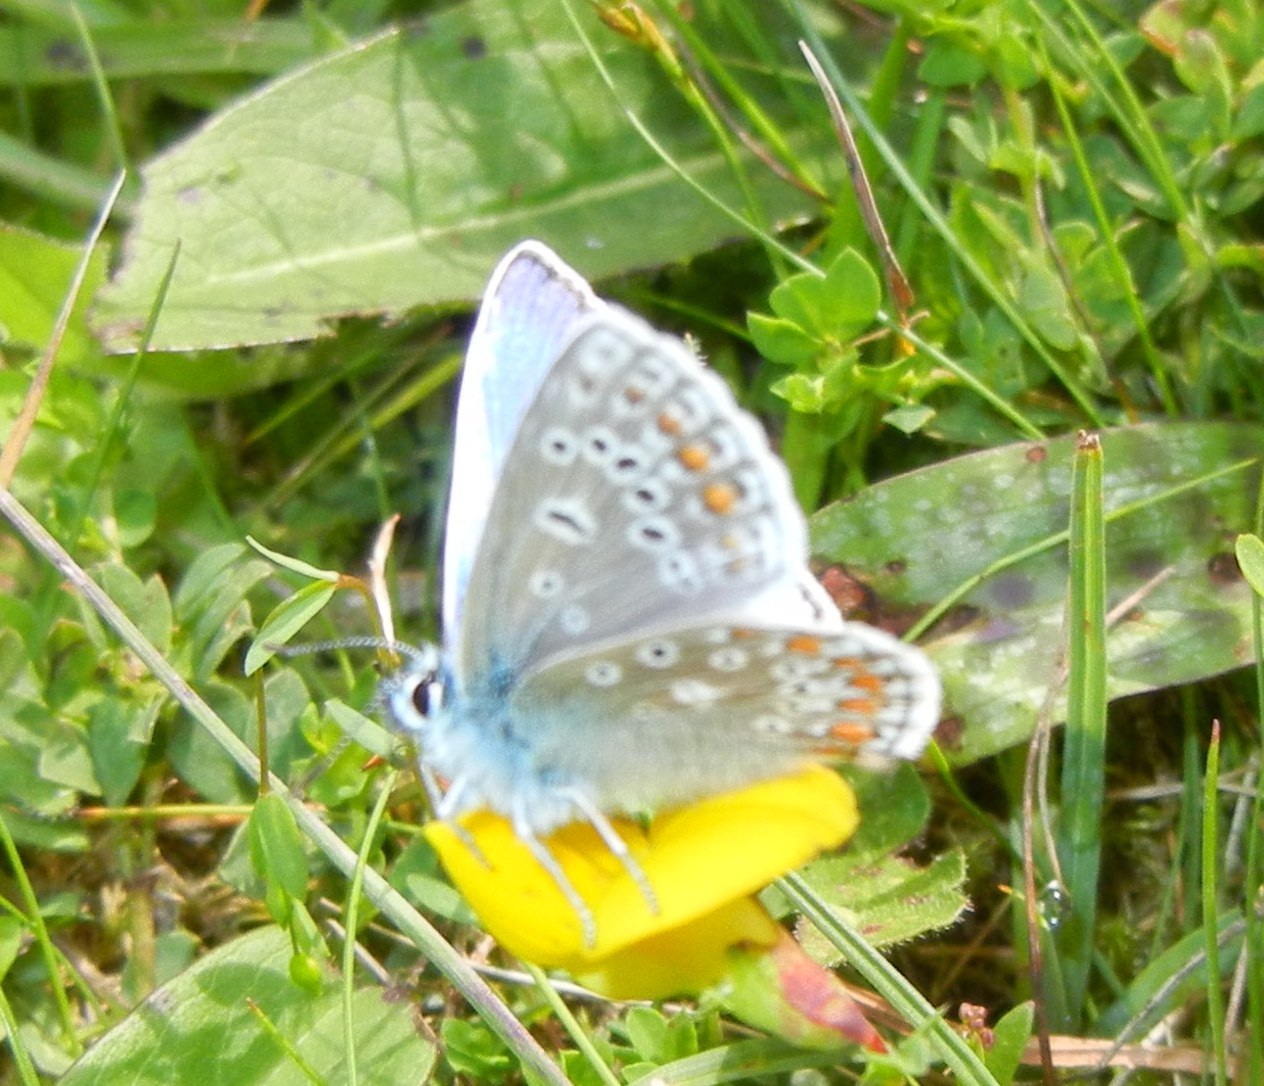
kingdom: Animalia
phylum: Arthropoda
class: Insecta
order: Lepidoptera
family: Lycaenidae
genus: Polyommatus
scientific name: Polyommatus icarus
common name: Common blue
